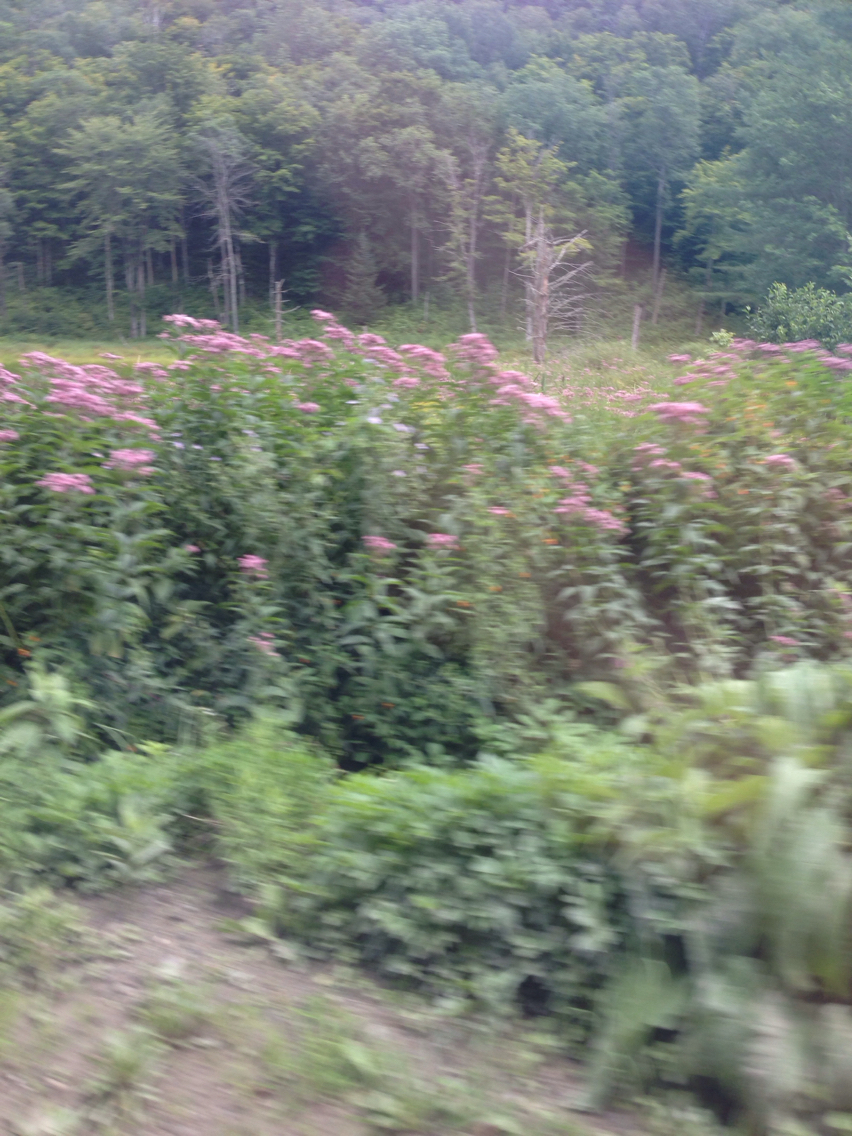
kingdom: Plantae
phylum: Tracheophyta
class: Magnoliopsida
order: Asterales
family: Asteraceae
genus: Eutrochium
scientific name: Eutrochium maculatum
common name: Spotted joe pye weed
